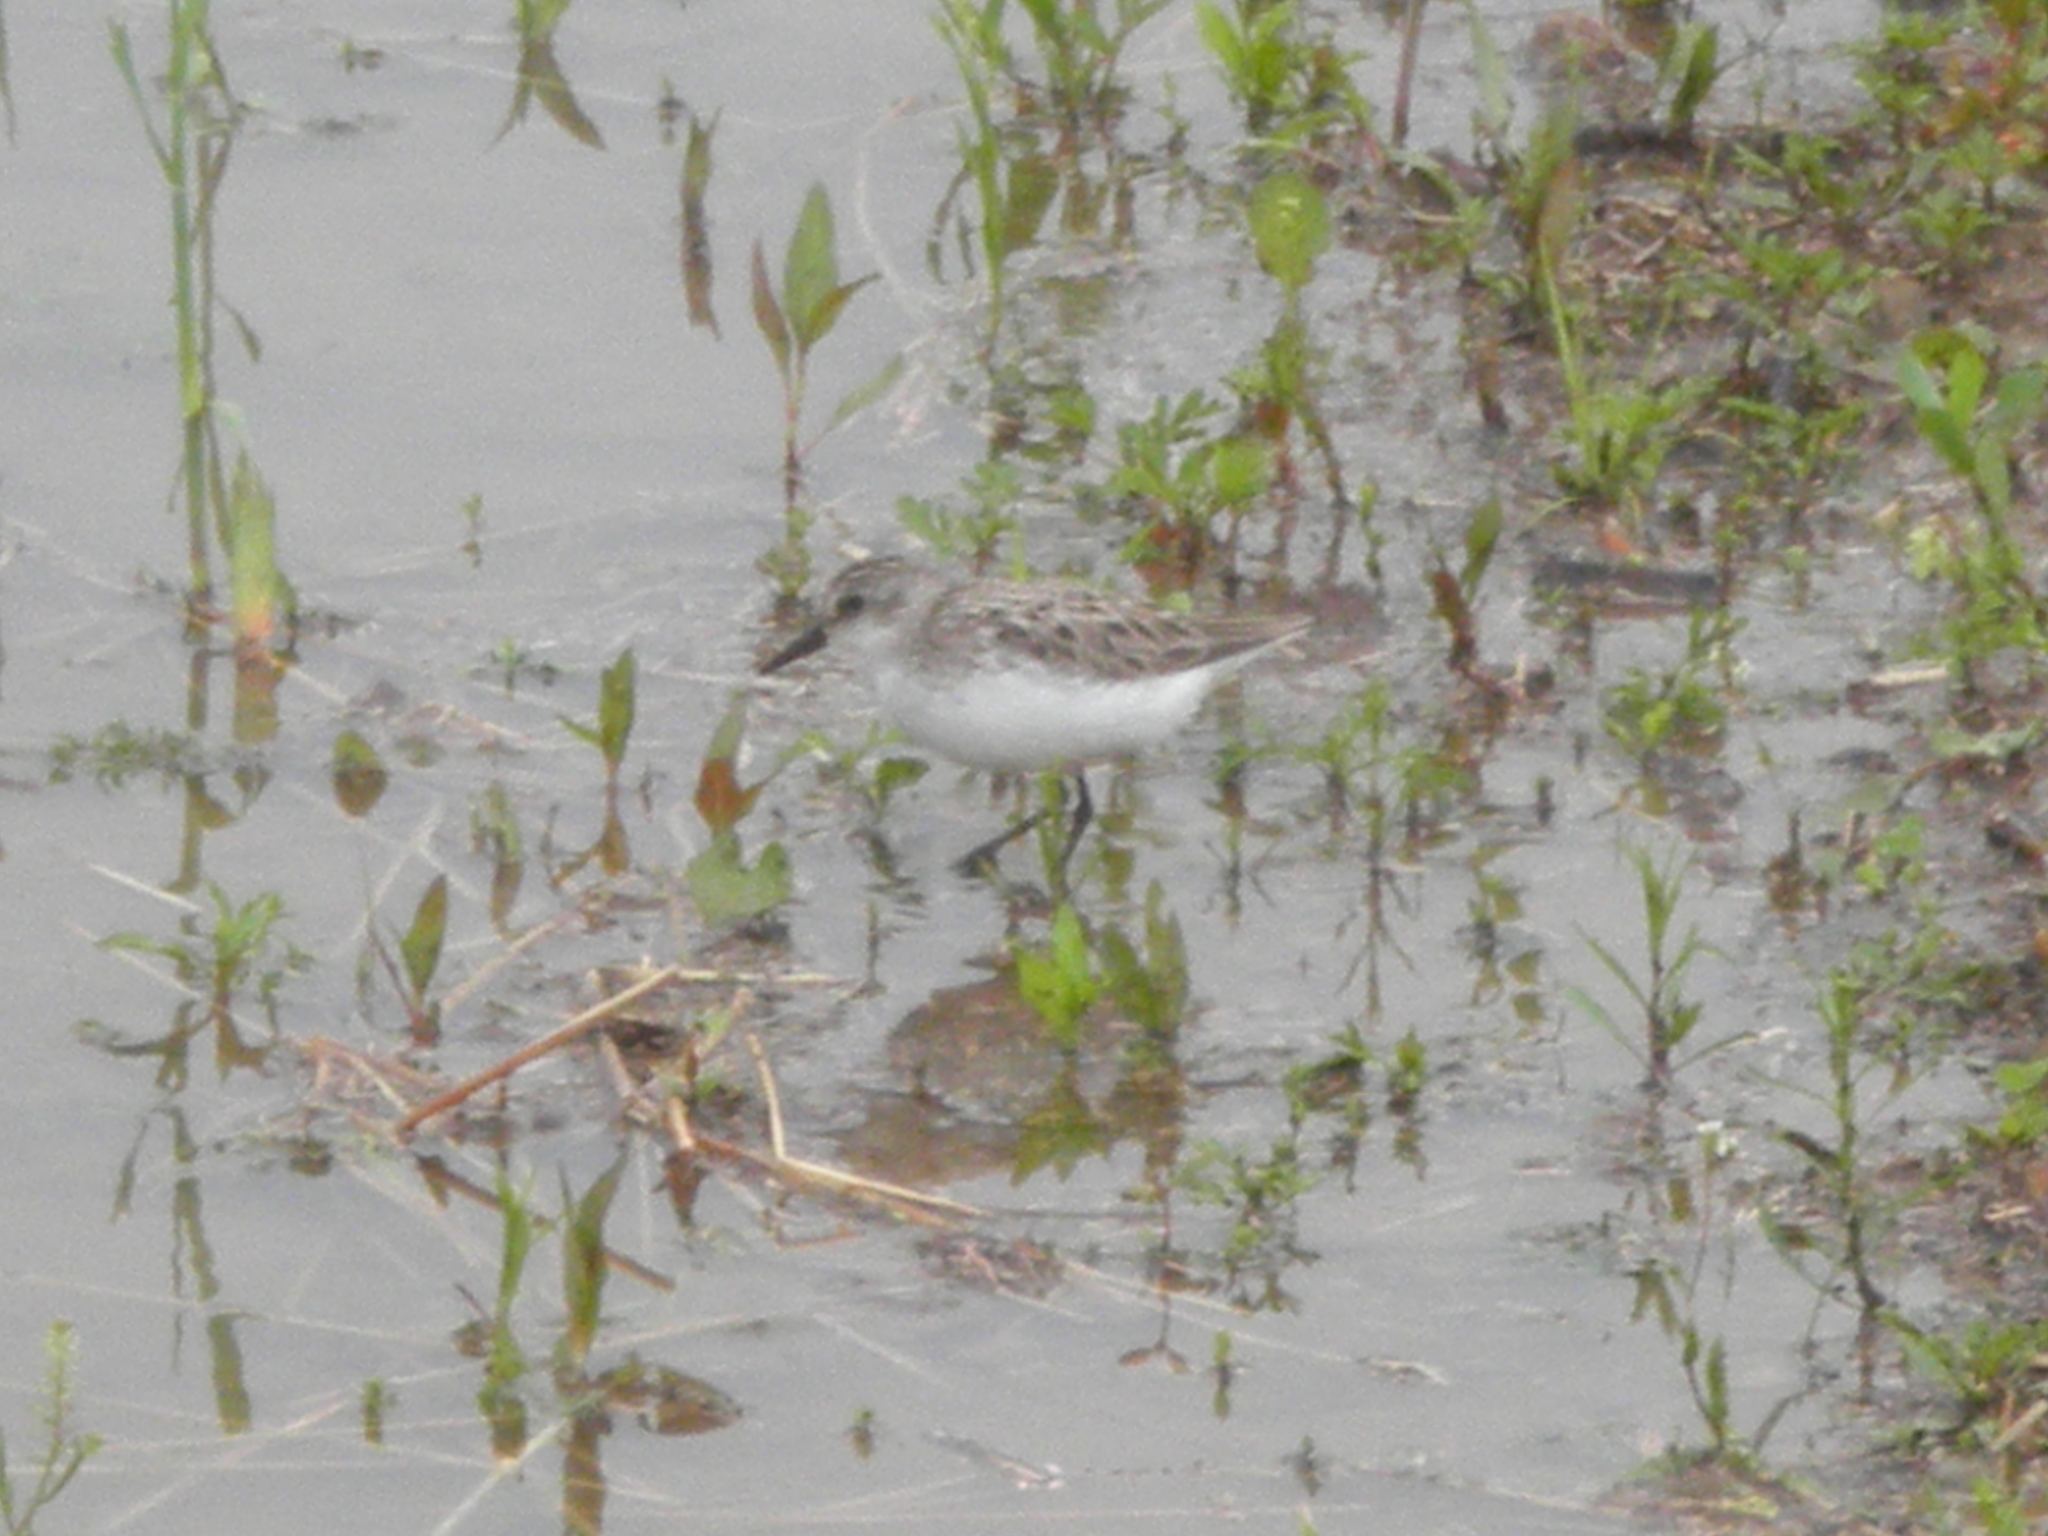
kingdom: Animalia
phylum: Chordata
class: Aves
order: Charadriiformes
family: Scolopacidae
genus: Calidris
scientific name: Calidris pusilla
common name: Semipalmated sandpiper
